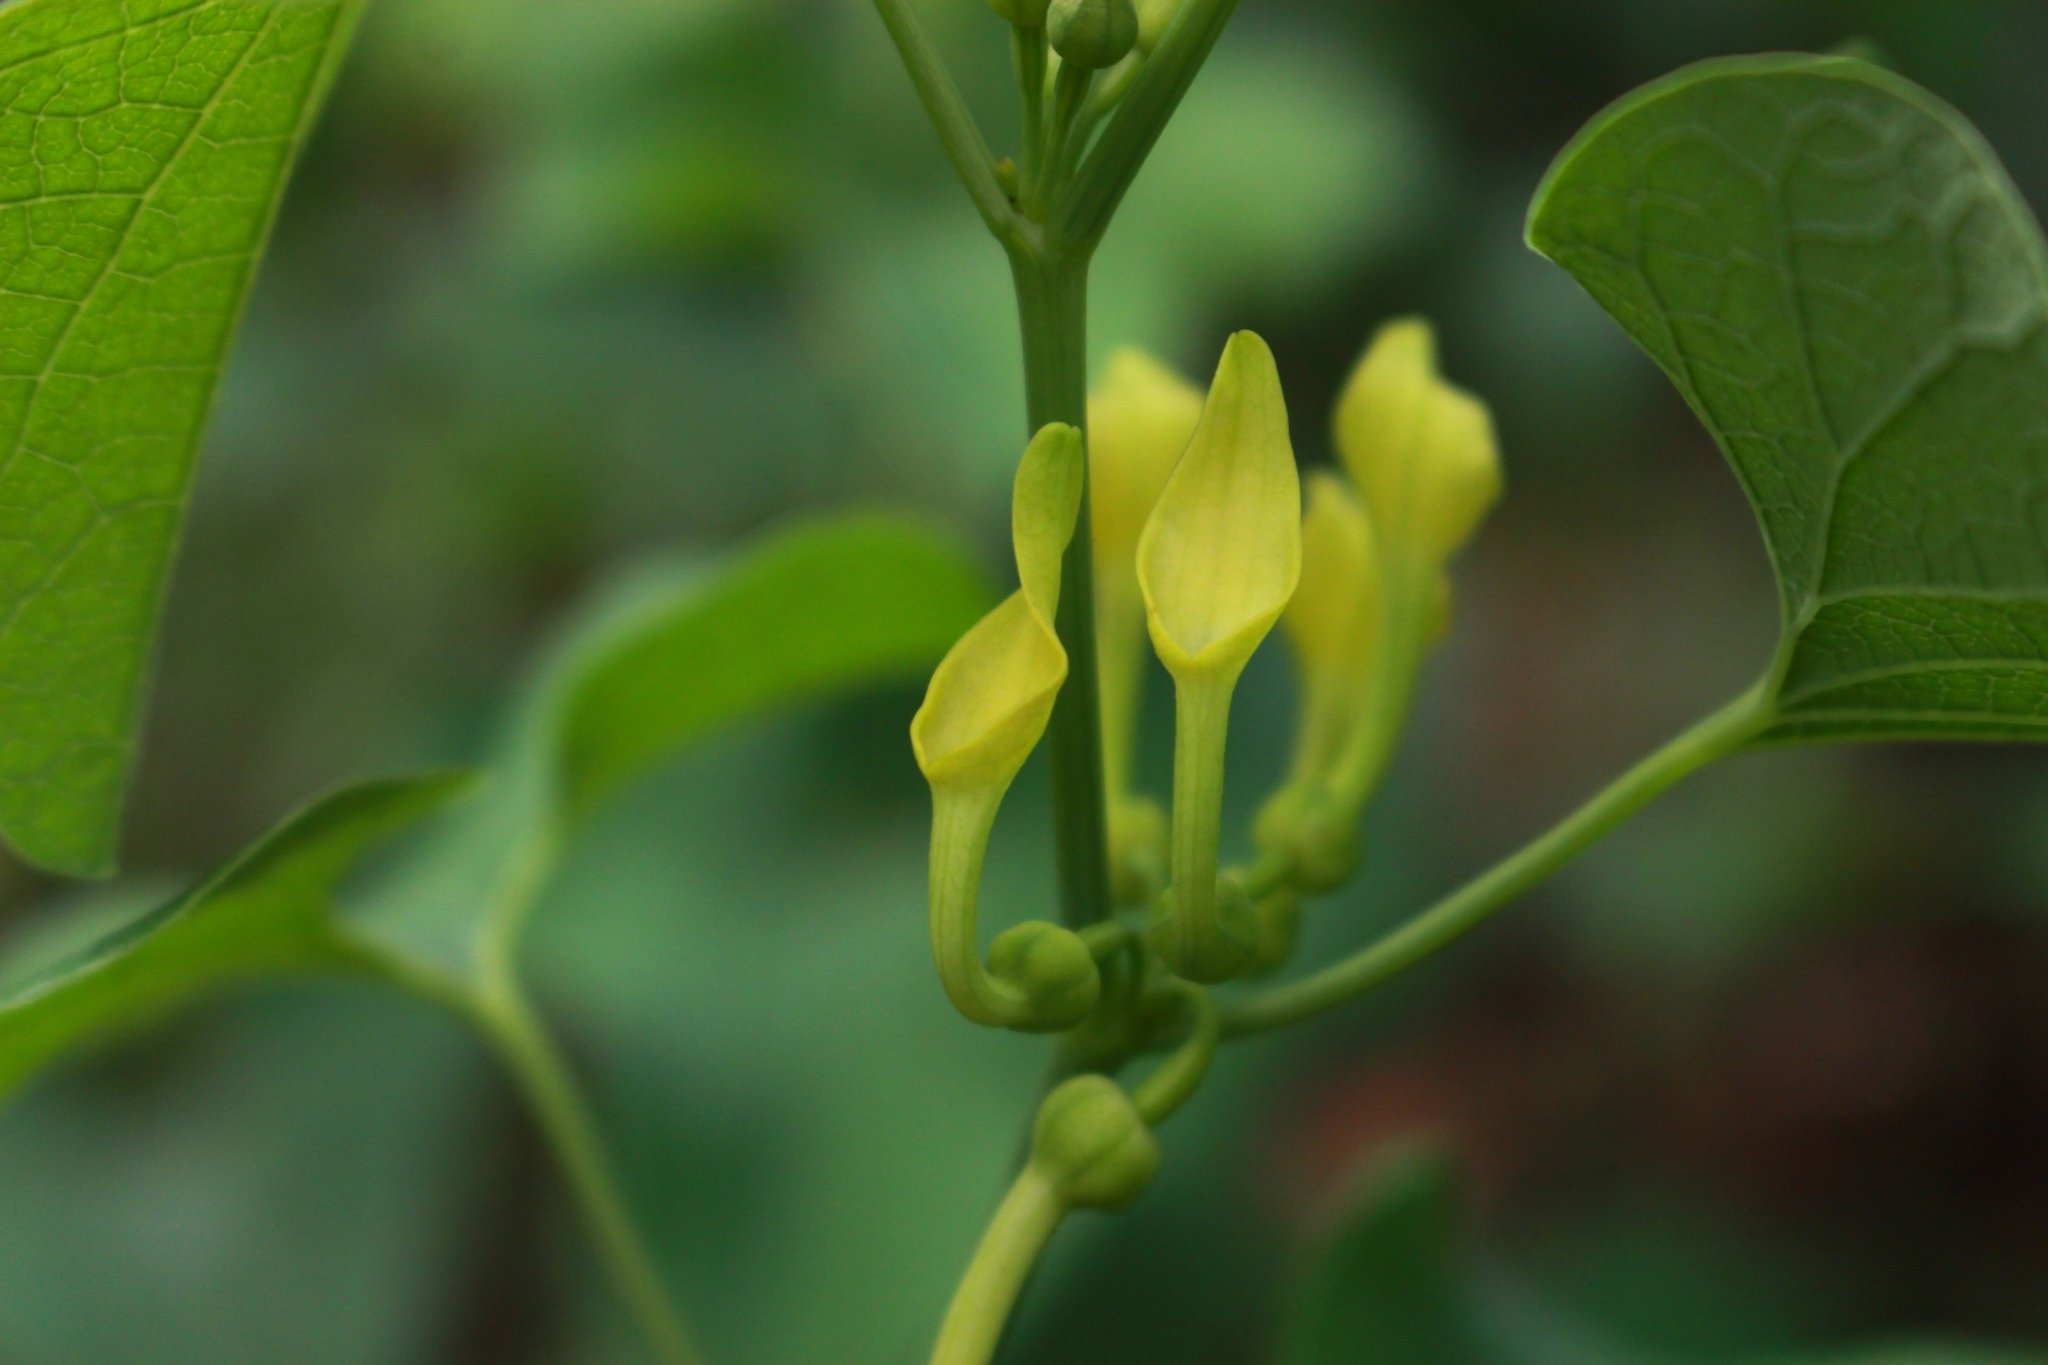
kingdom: Plantae
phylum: Tracheophyta
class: Magnoliopsida
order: Piperales
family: Aristolochiaceae
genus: Aristolochia
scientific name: Aristolochia clematitis
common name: Birthwort
